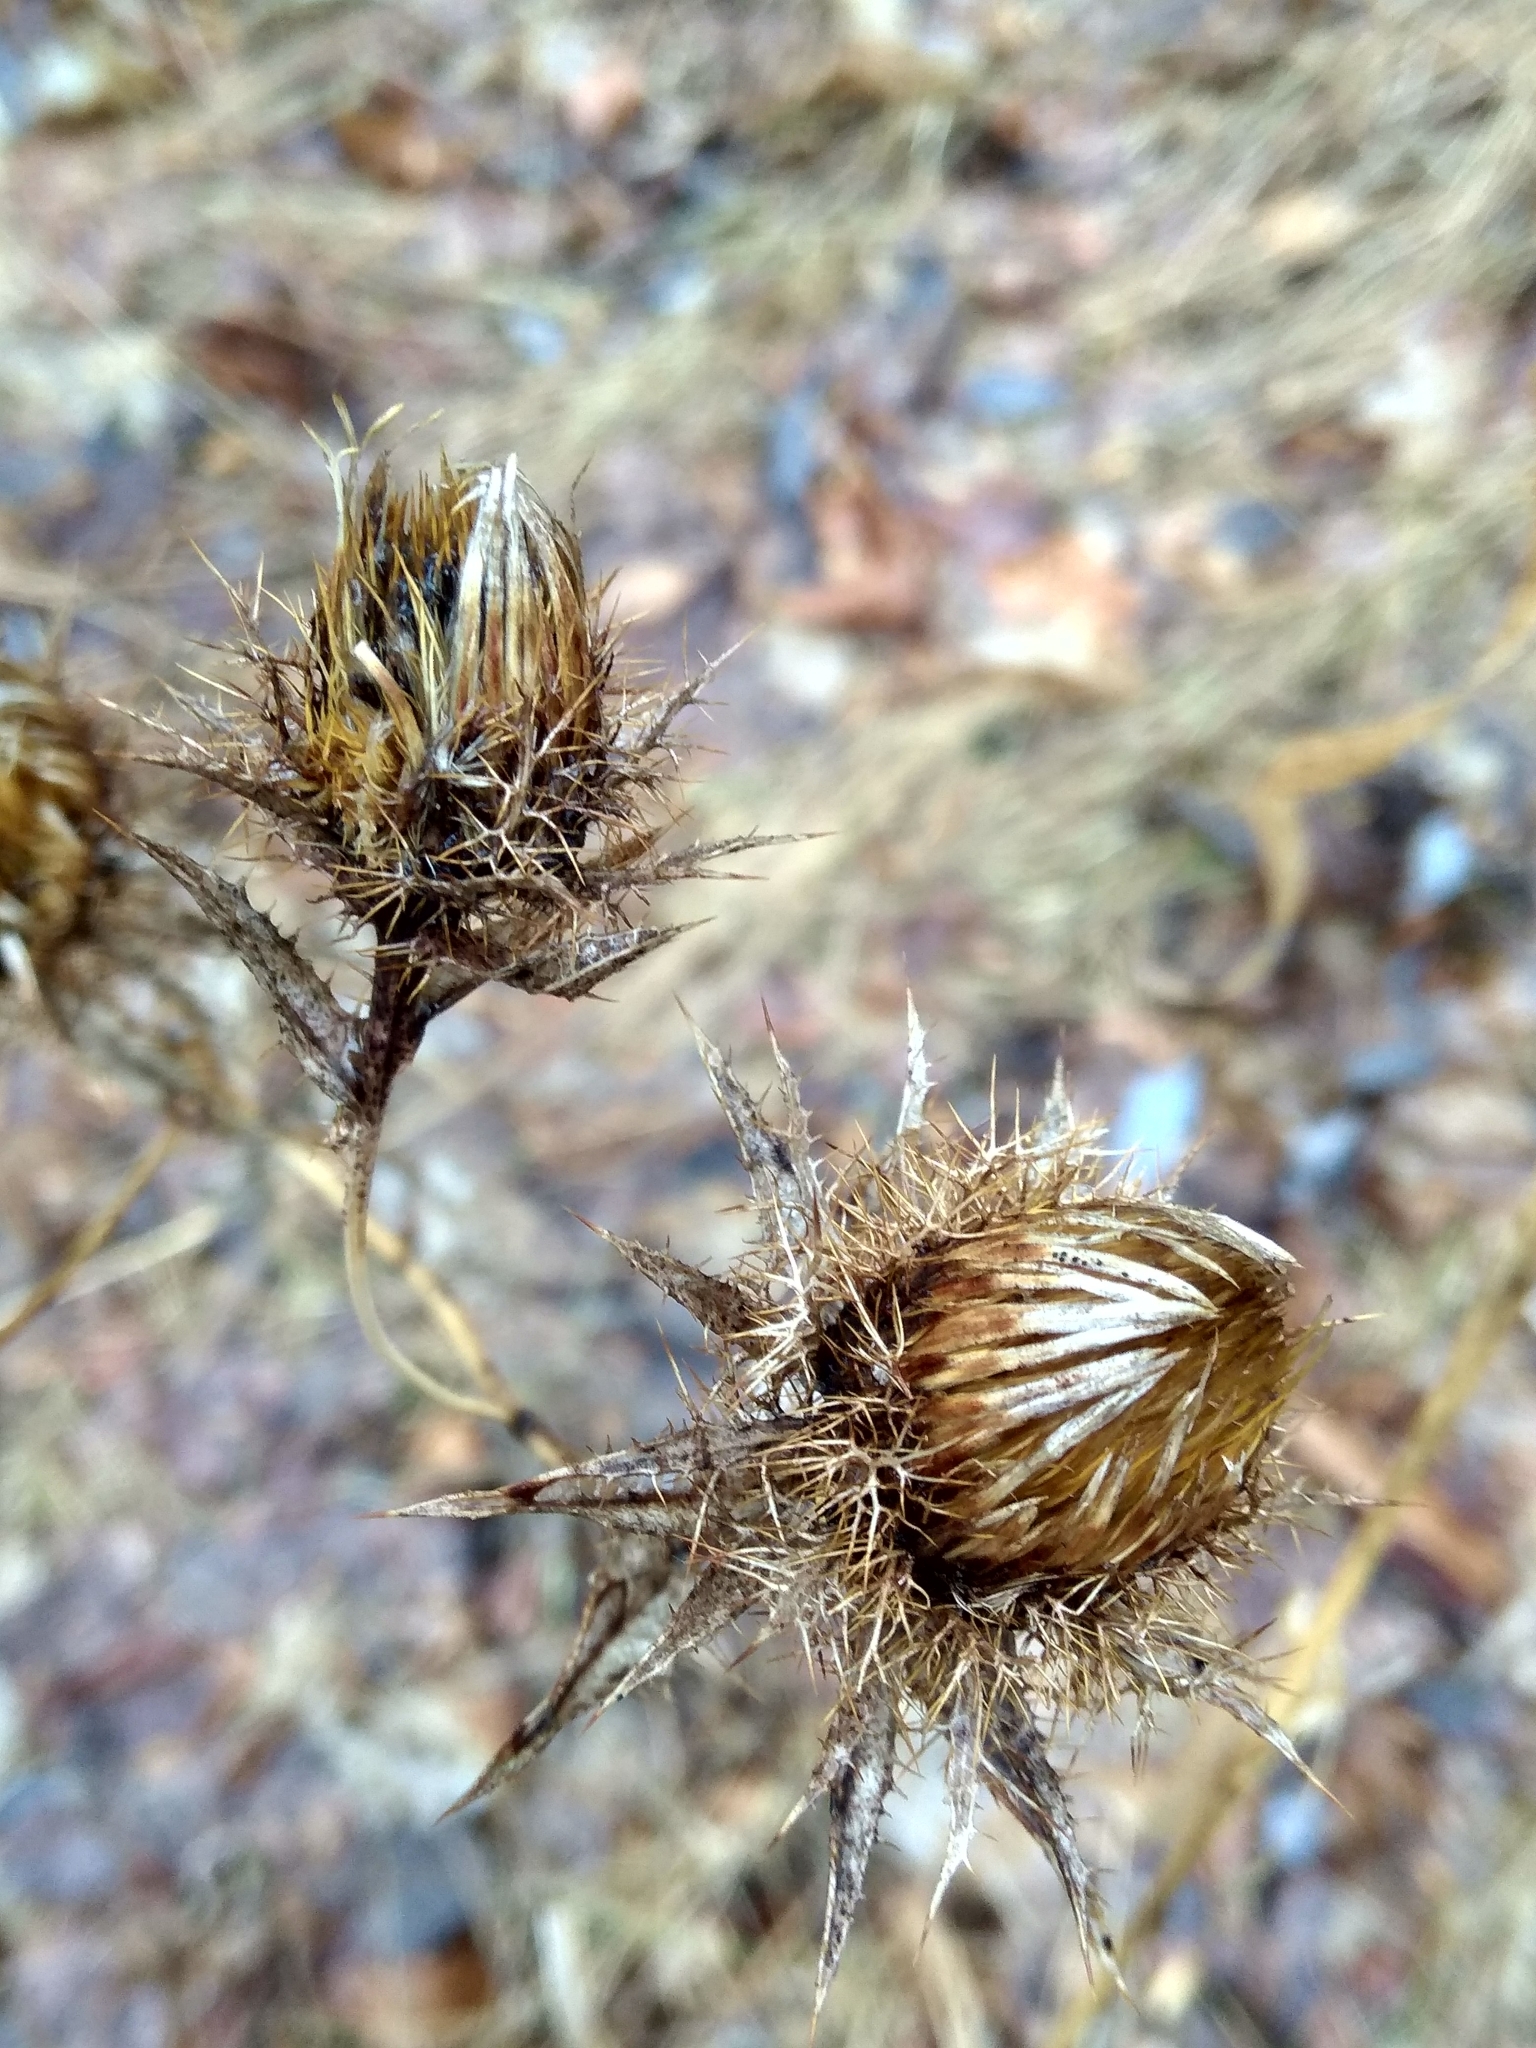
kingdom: Plantae
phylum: Tracheophyta
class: Magnoliopsida
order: Asterales
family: Asteraceae
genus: Carlina
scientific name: Carlina biebersteinii
